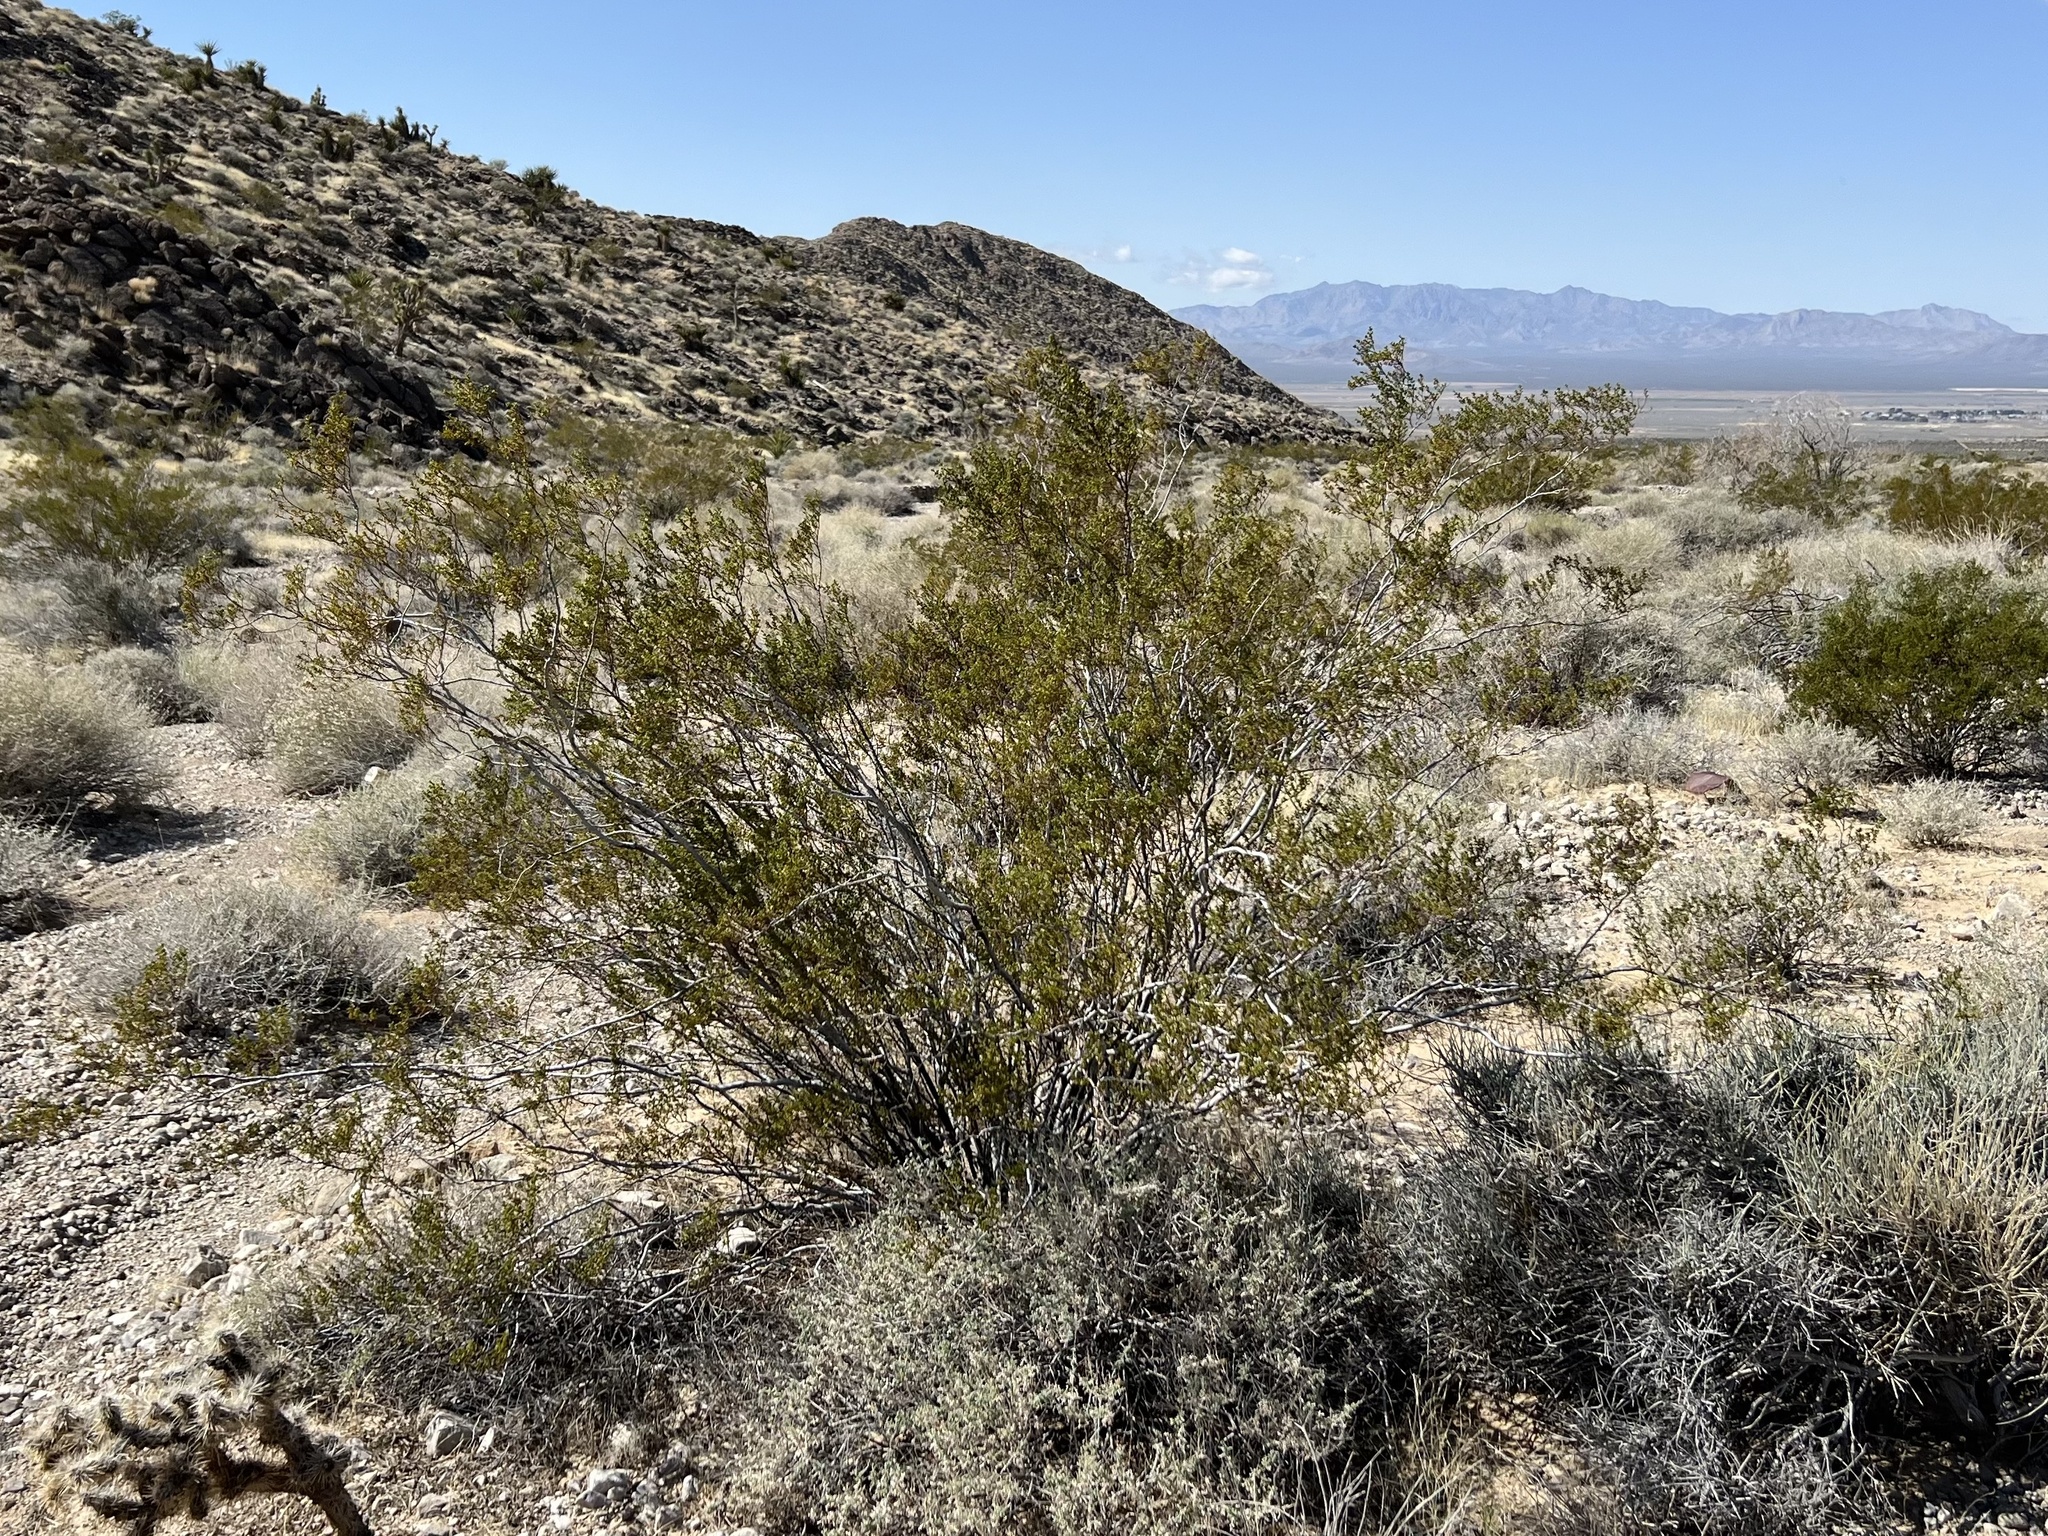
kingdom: Plantae
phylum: Tracheophyta
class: Magnoliopsida
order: Zygophyllales
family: Zygophyllaceae
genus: Larrea
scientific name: Larrea tridentata
